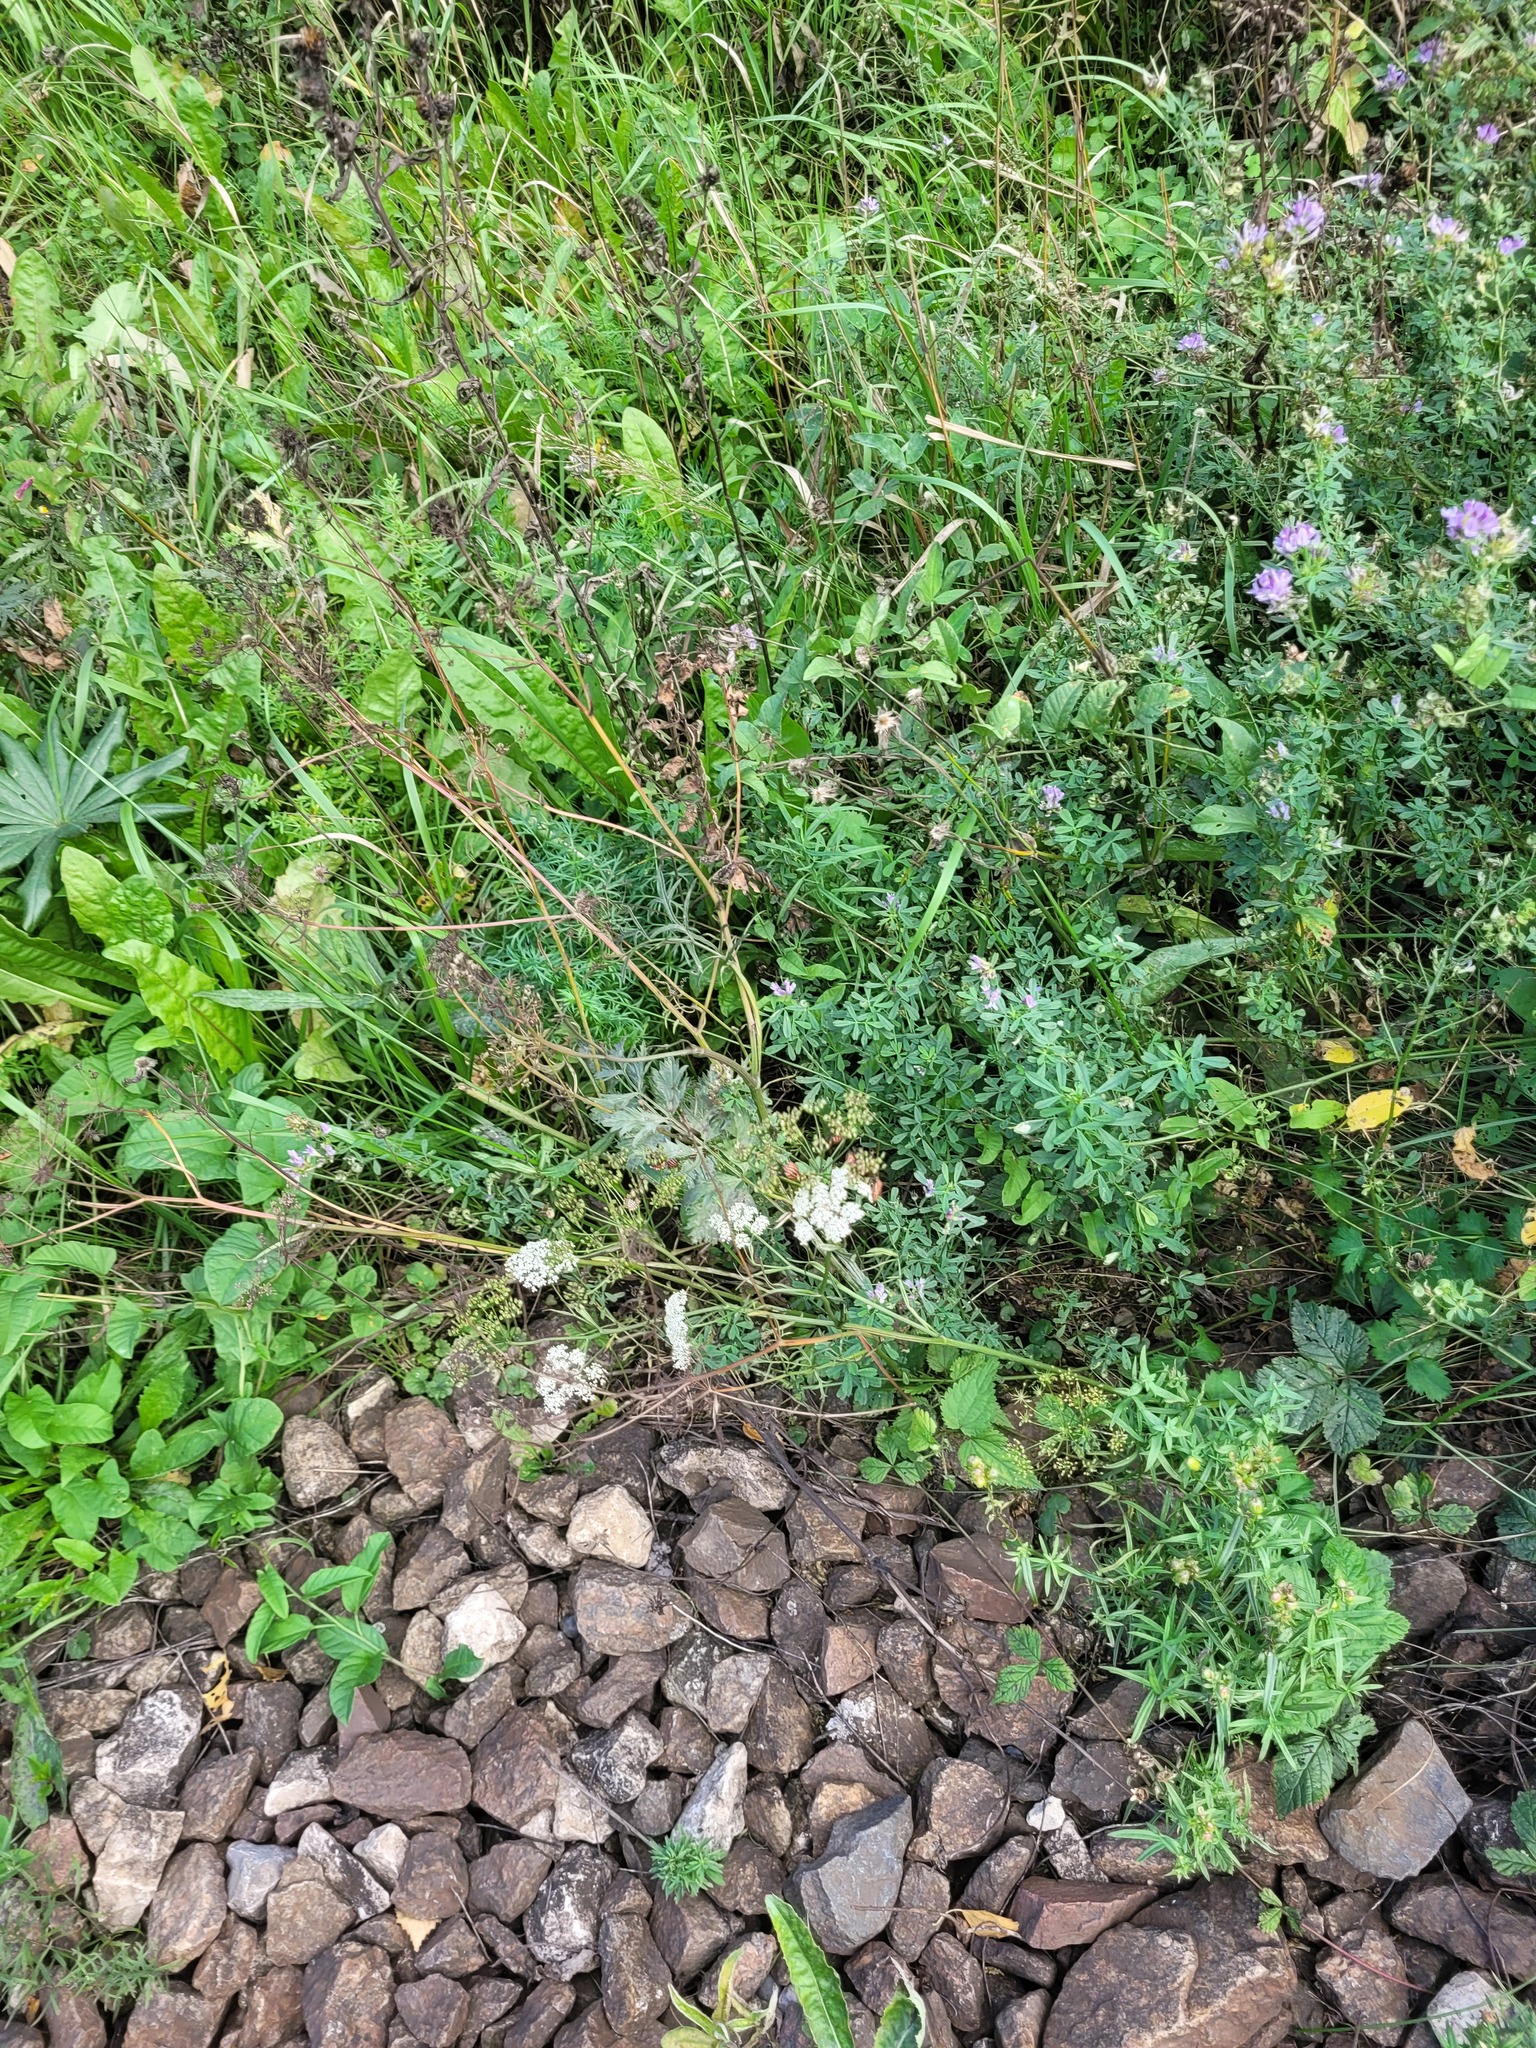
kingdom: Plantae
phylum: Tracheophyta
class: Magnoliopsida
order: Apiales
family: Apiaceae
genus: Pimpinella
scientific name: Pimpinella saxifraga
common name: Burnet-saxifrage
